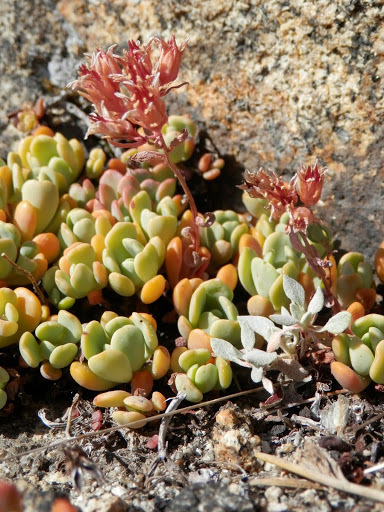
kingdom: Plantae
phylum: Tracheophyta
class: Magnoliopsida
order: Saxifragales
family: Crassulaceae
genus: Sedum
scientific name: Sedum obtusatum
